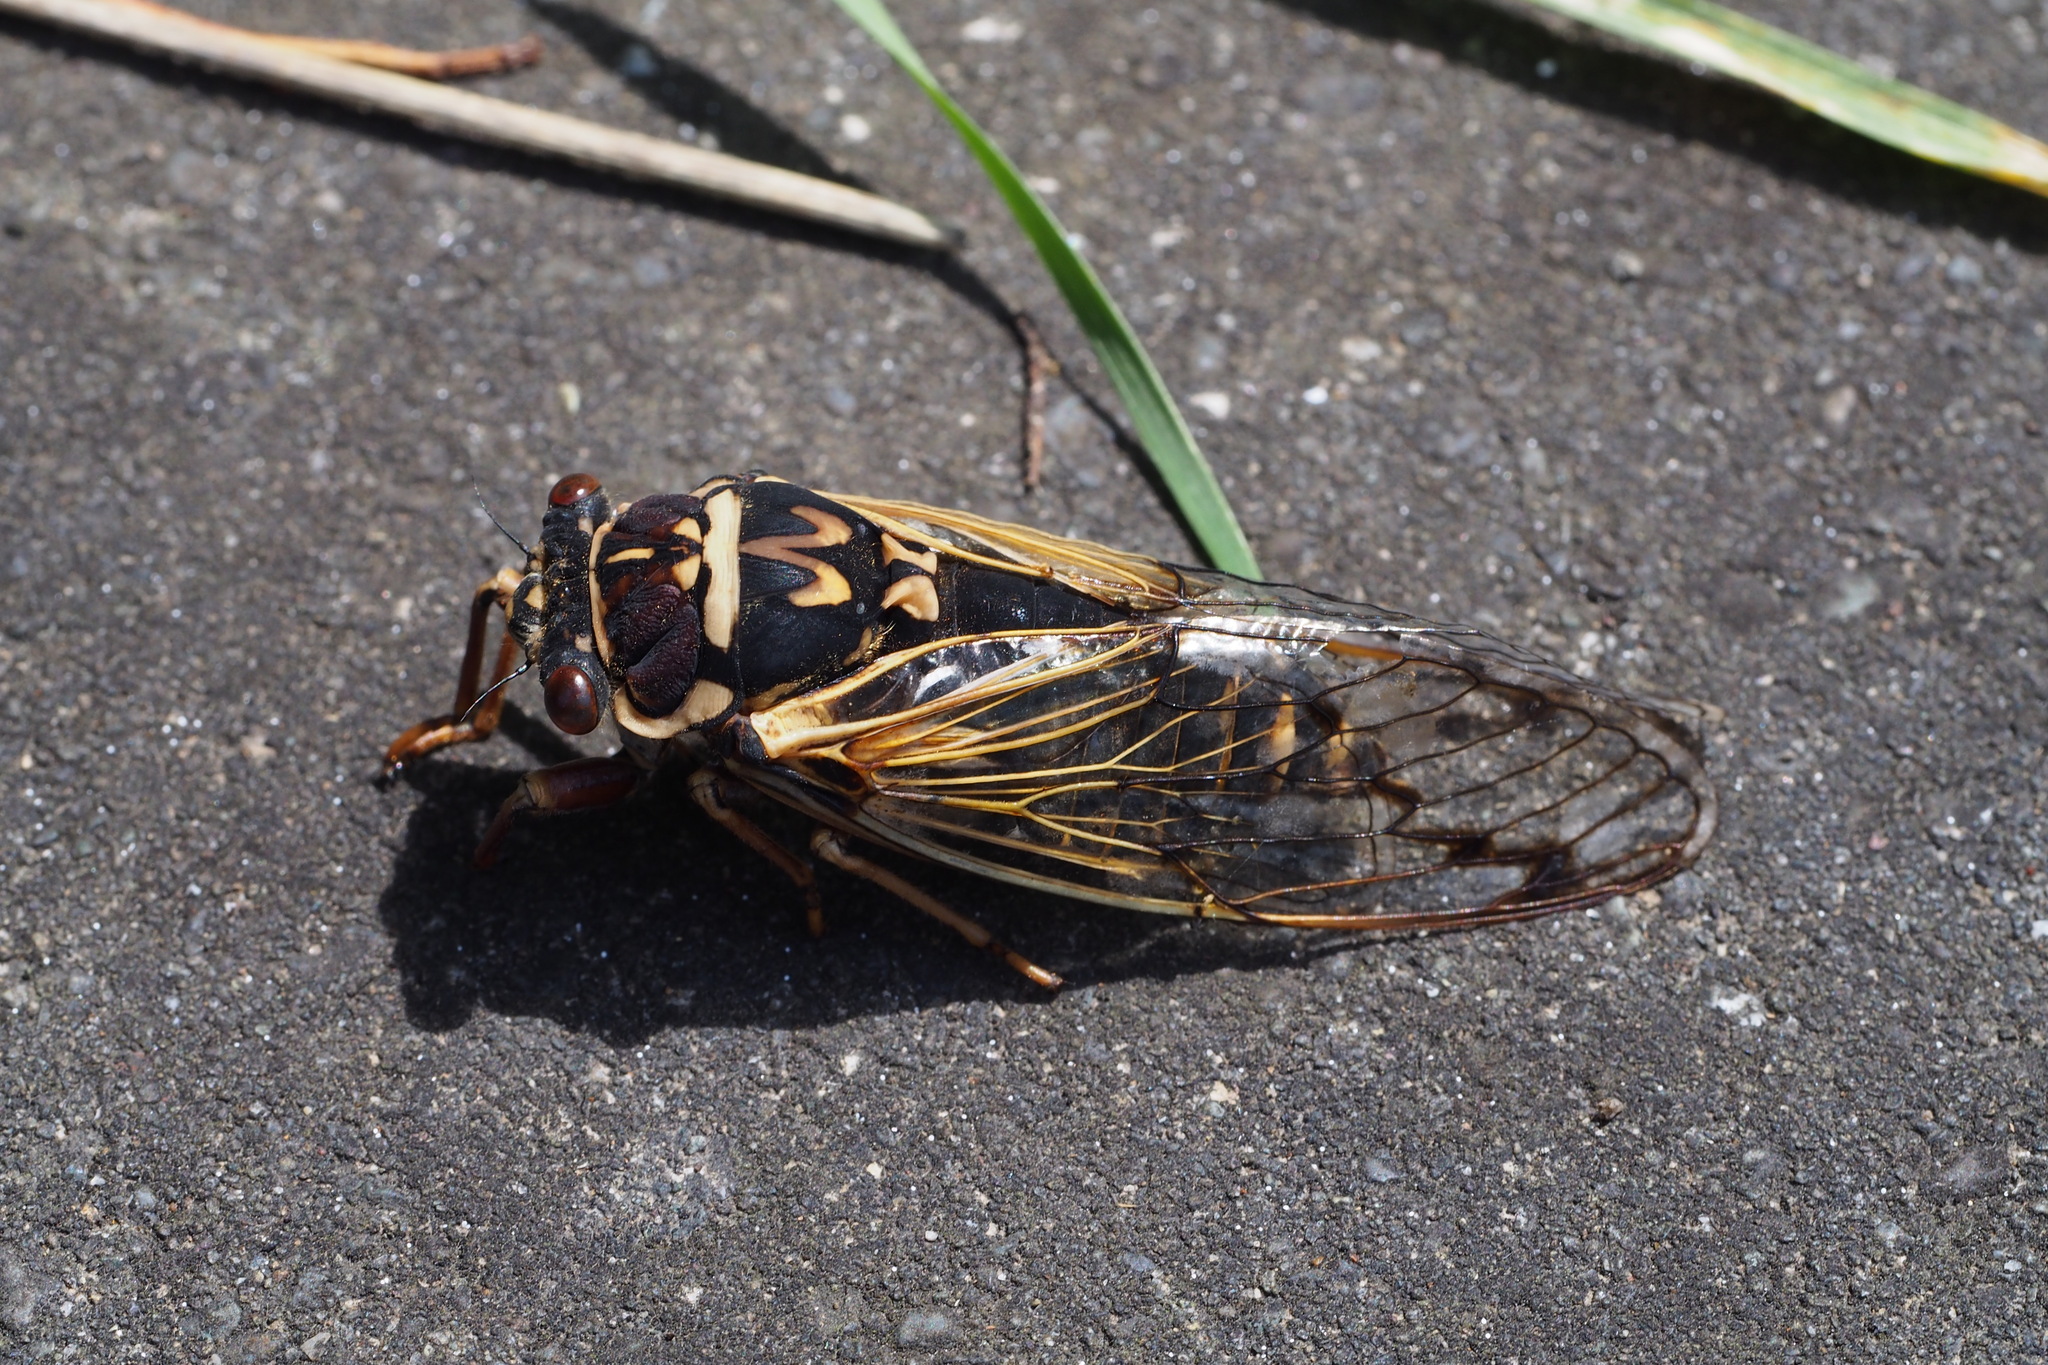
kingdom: Animalia
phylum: Arthropoda
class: Insecta
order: Hemiptera
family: Cicadidae
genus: Auritibicen
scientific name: Auritibicen bihamatus
